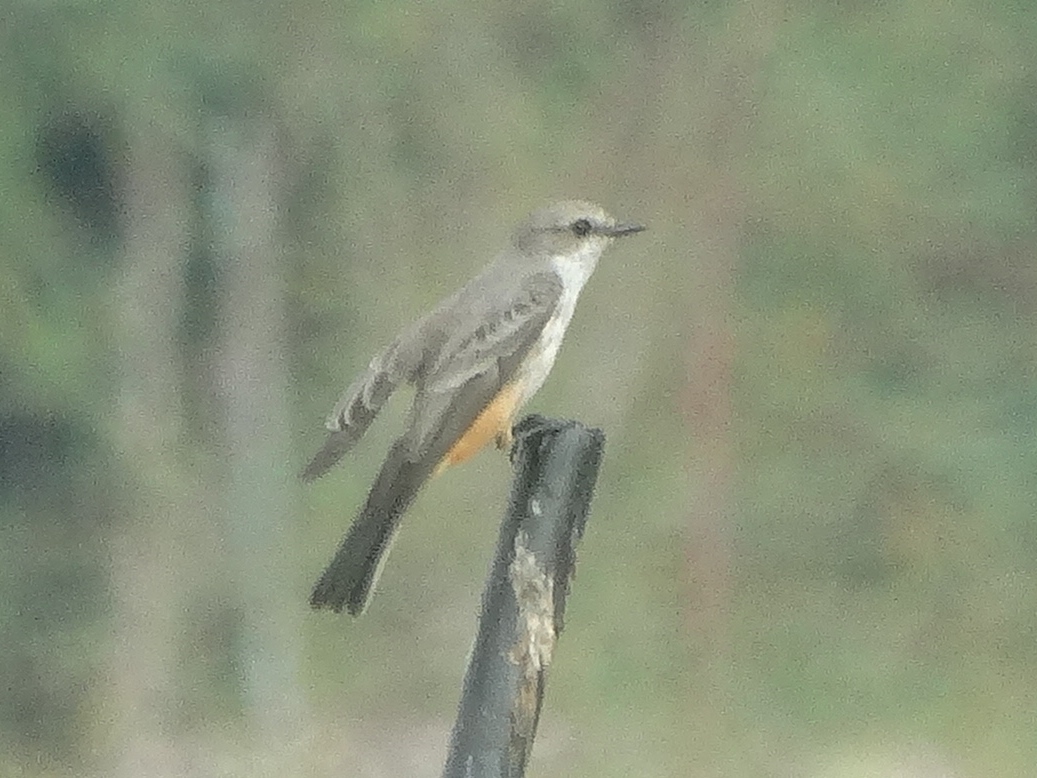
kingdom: Animalia
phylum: Chordata
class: Aves
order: Passeriformes
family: Tyrannidae
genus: Pyrocephalus
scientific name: Pyrocephalus rubinus
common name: Vermilion flycatcher
